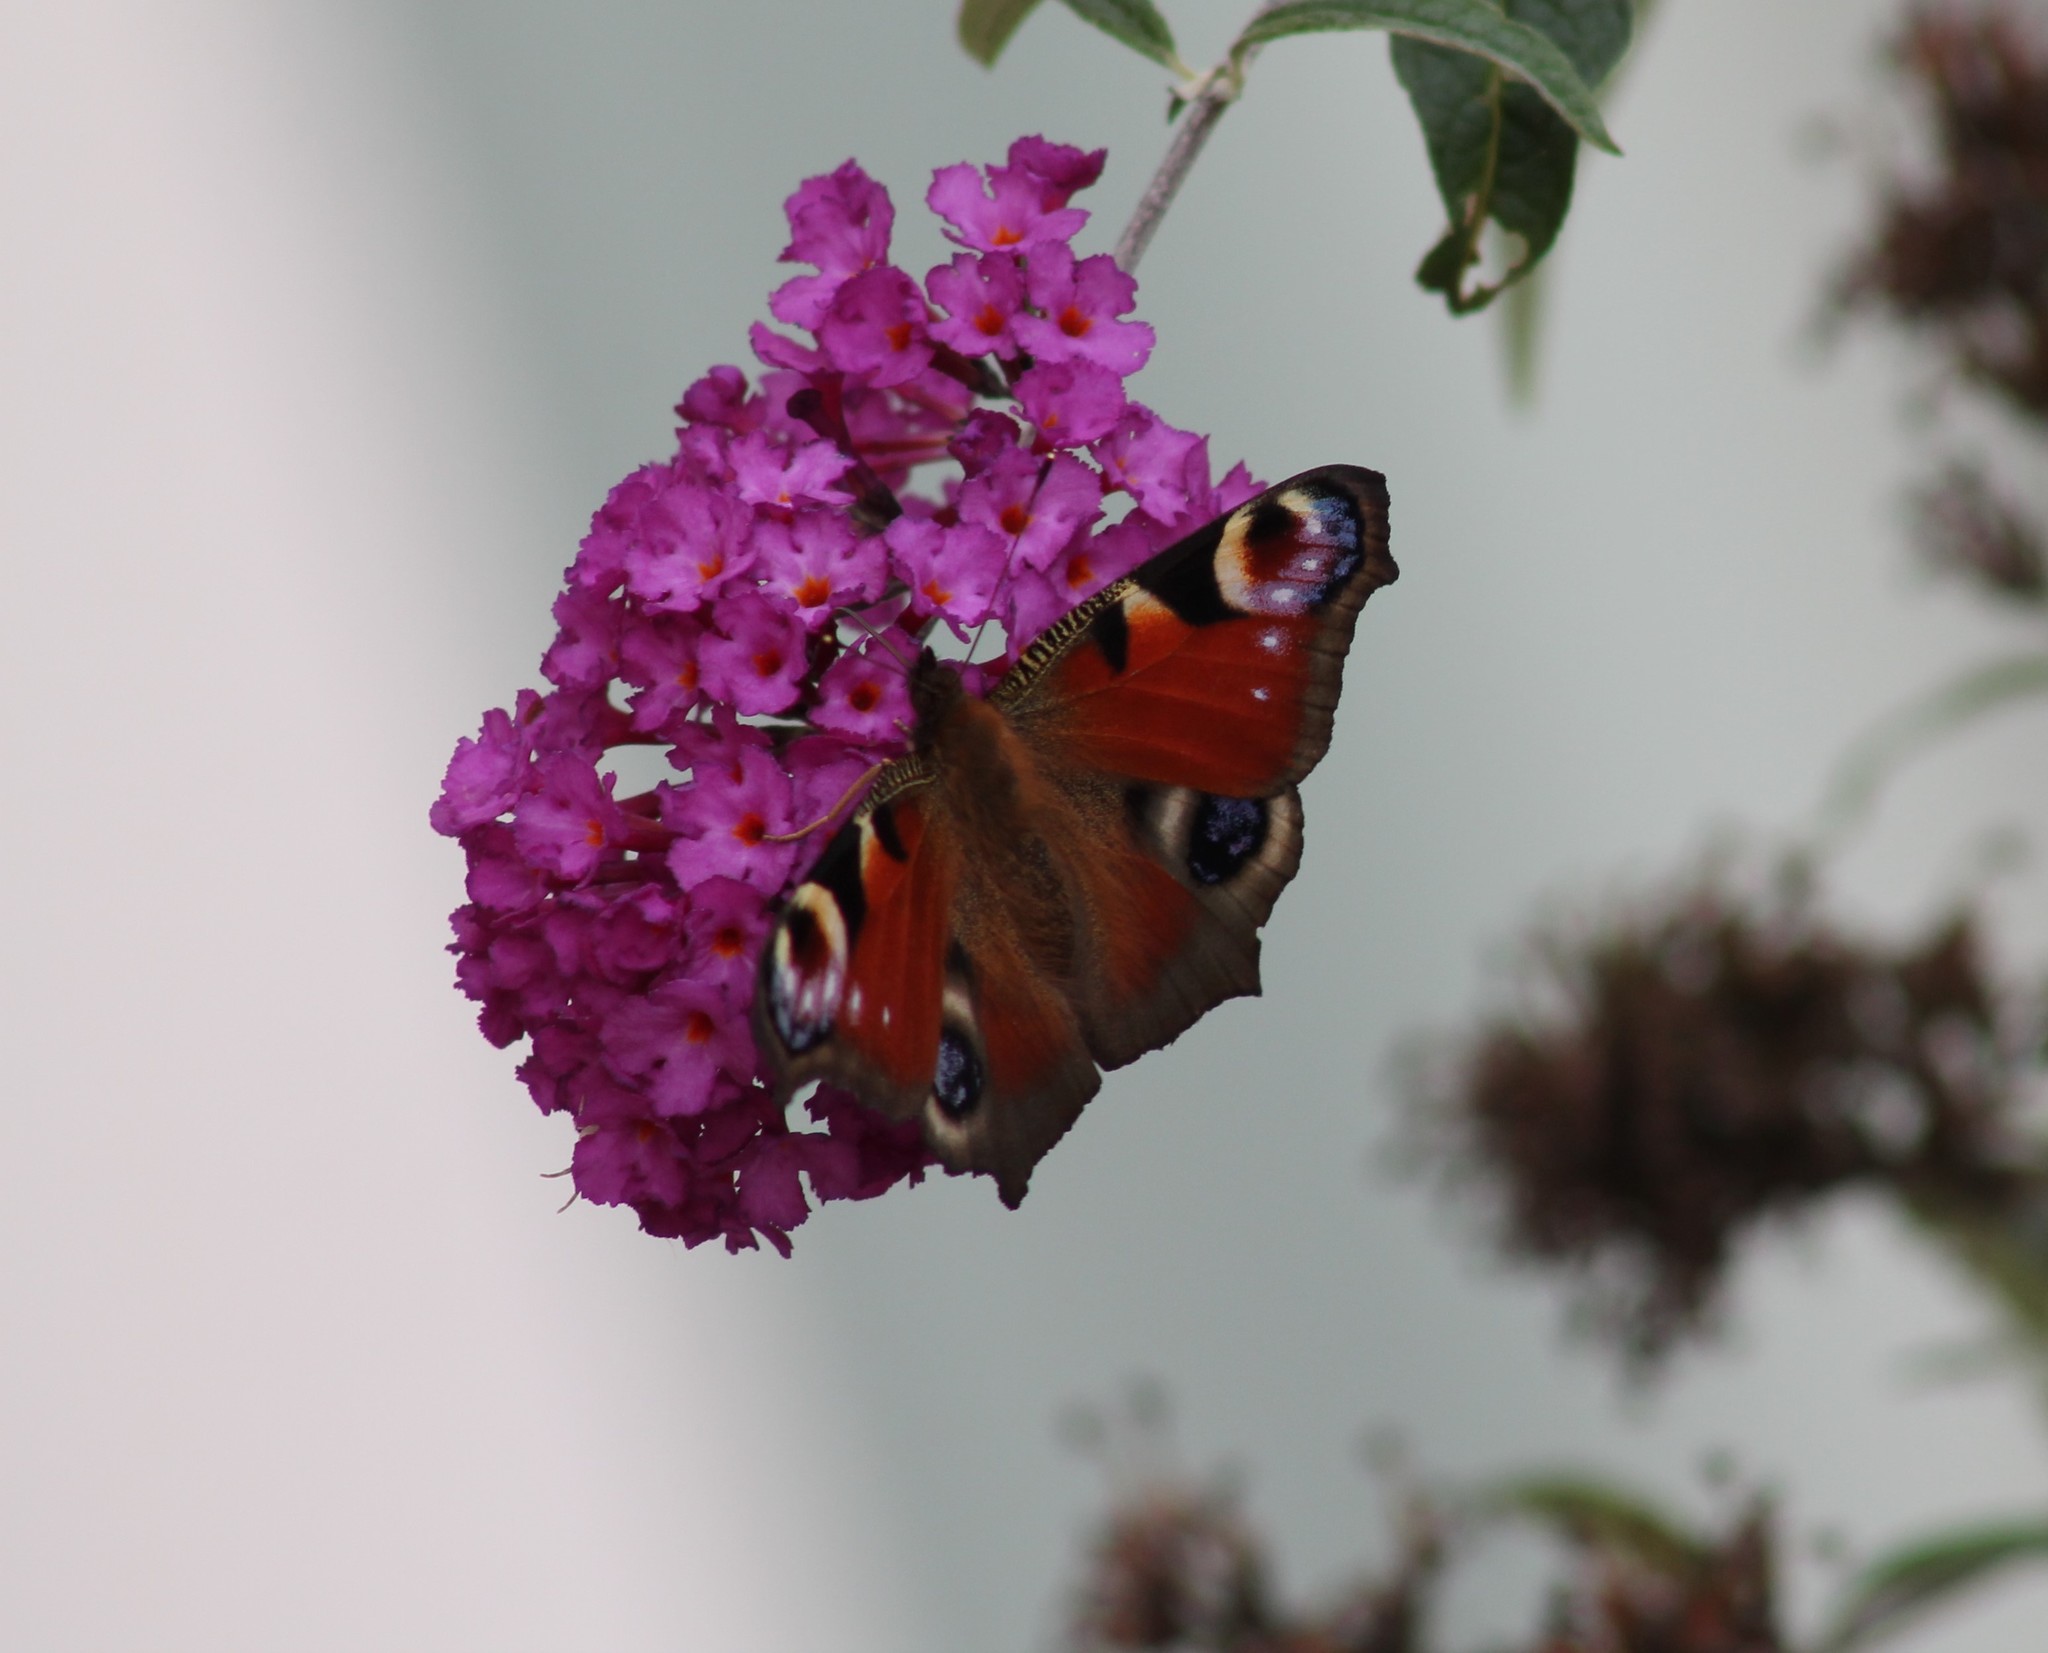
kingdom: Animalia
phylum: Arthropoda
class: Insecta
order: Lepidoptera
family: Nymphalidae
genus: Aglais
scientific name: Aglais io
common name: Peacock
